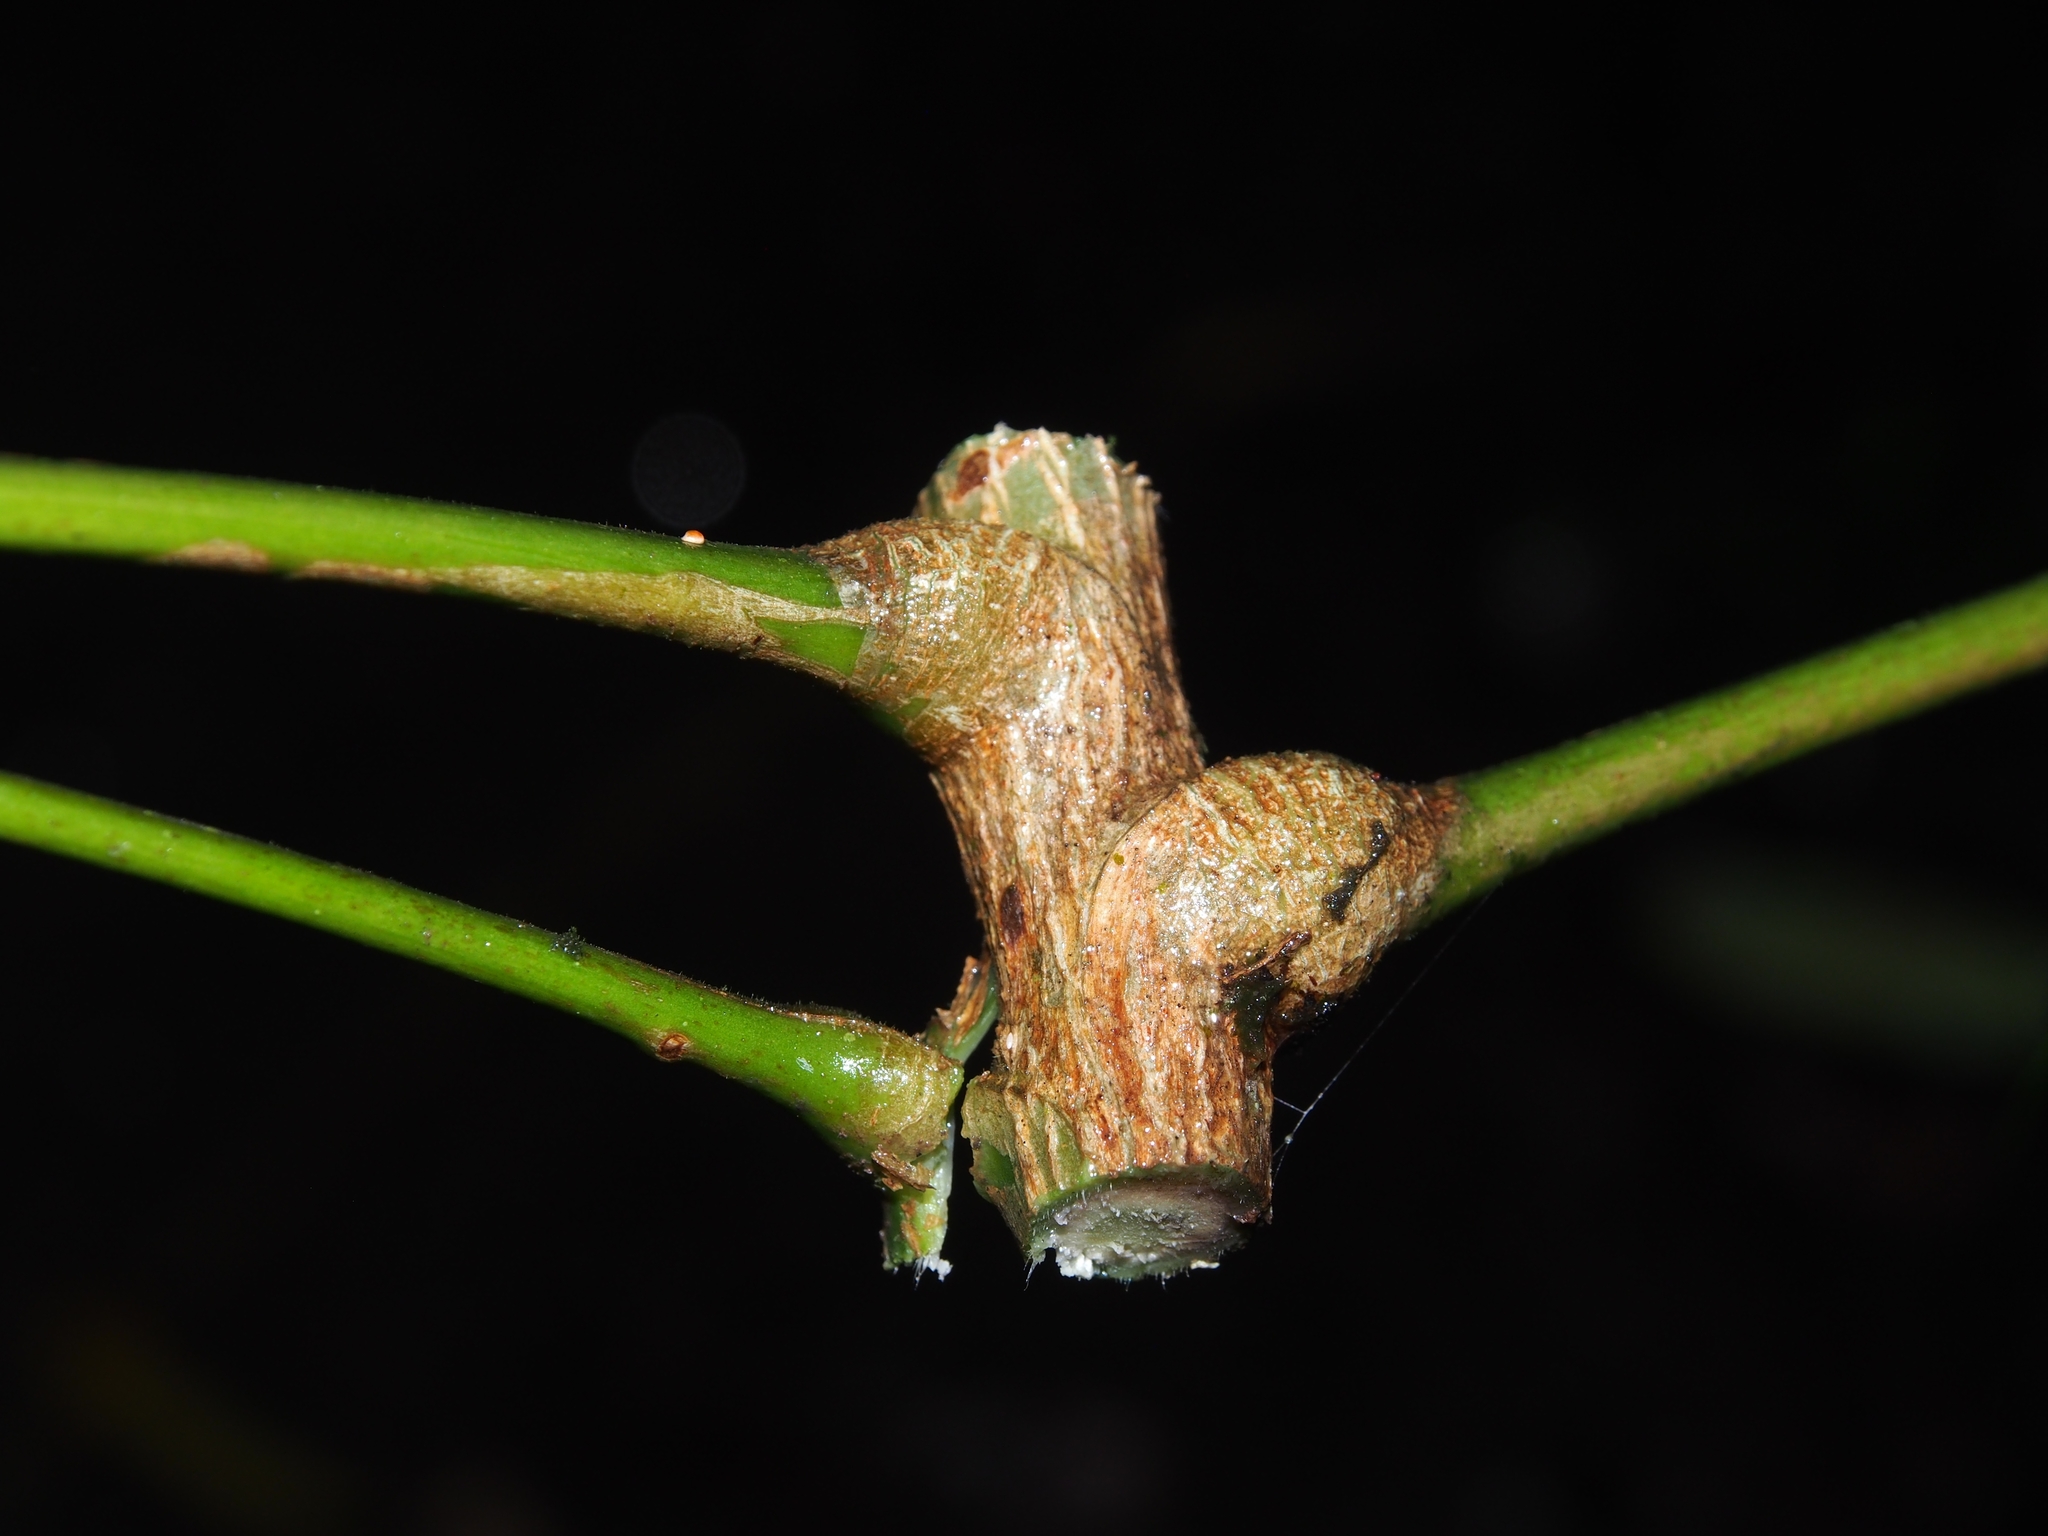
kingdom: Plantae
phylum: Tracheophyta
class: Magnoliopsida
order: Sapindales
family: Simaroubaceae
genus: Simarouba
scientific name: Simarouba amara
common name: Bitterwood
